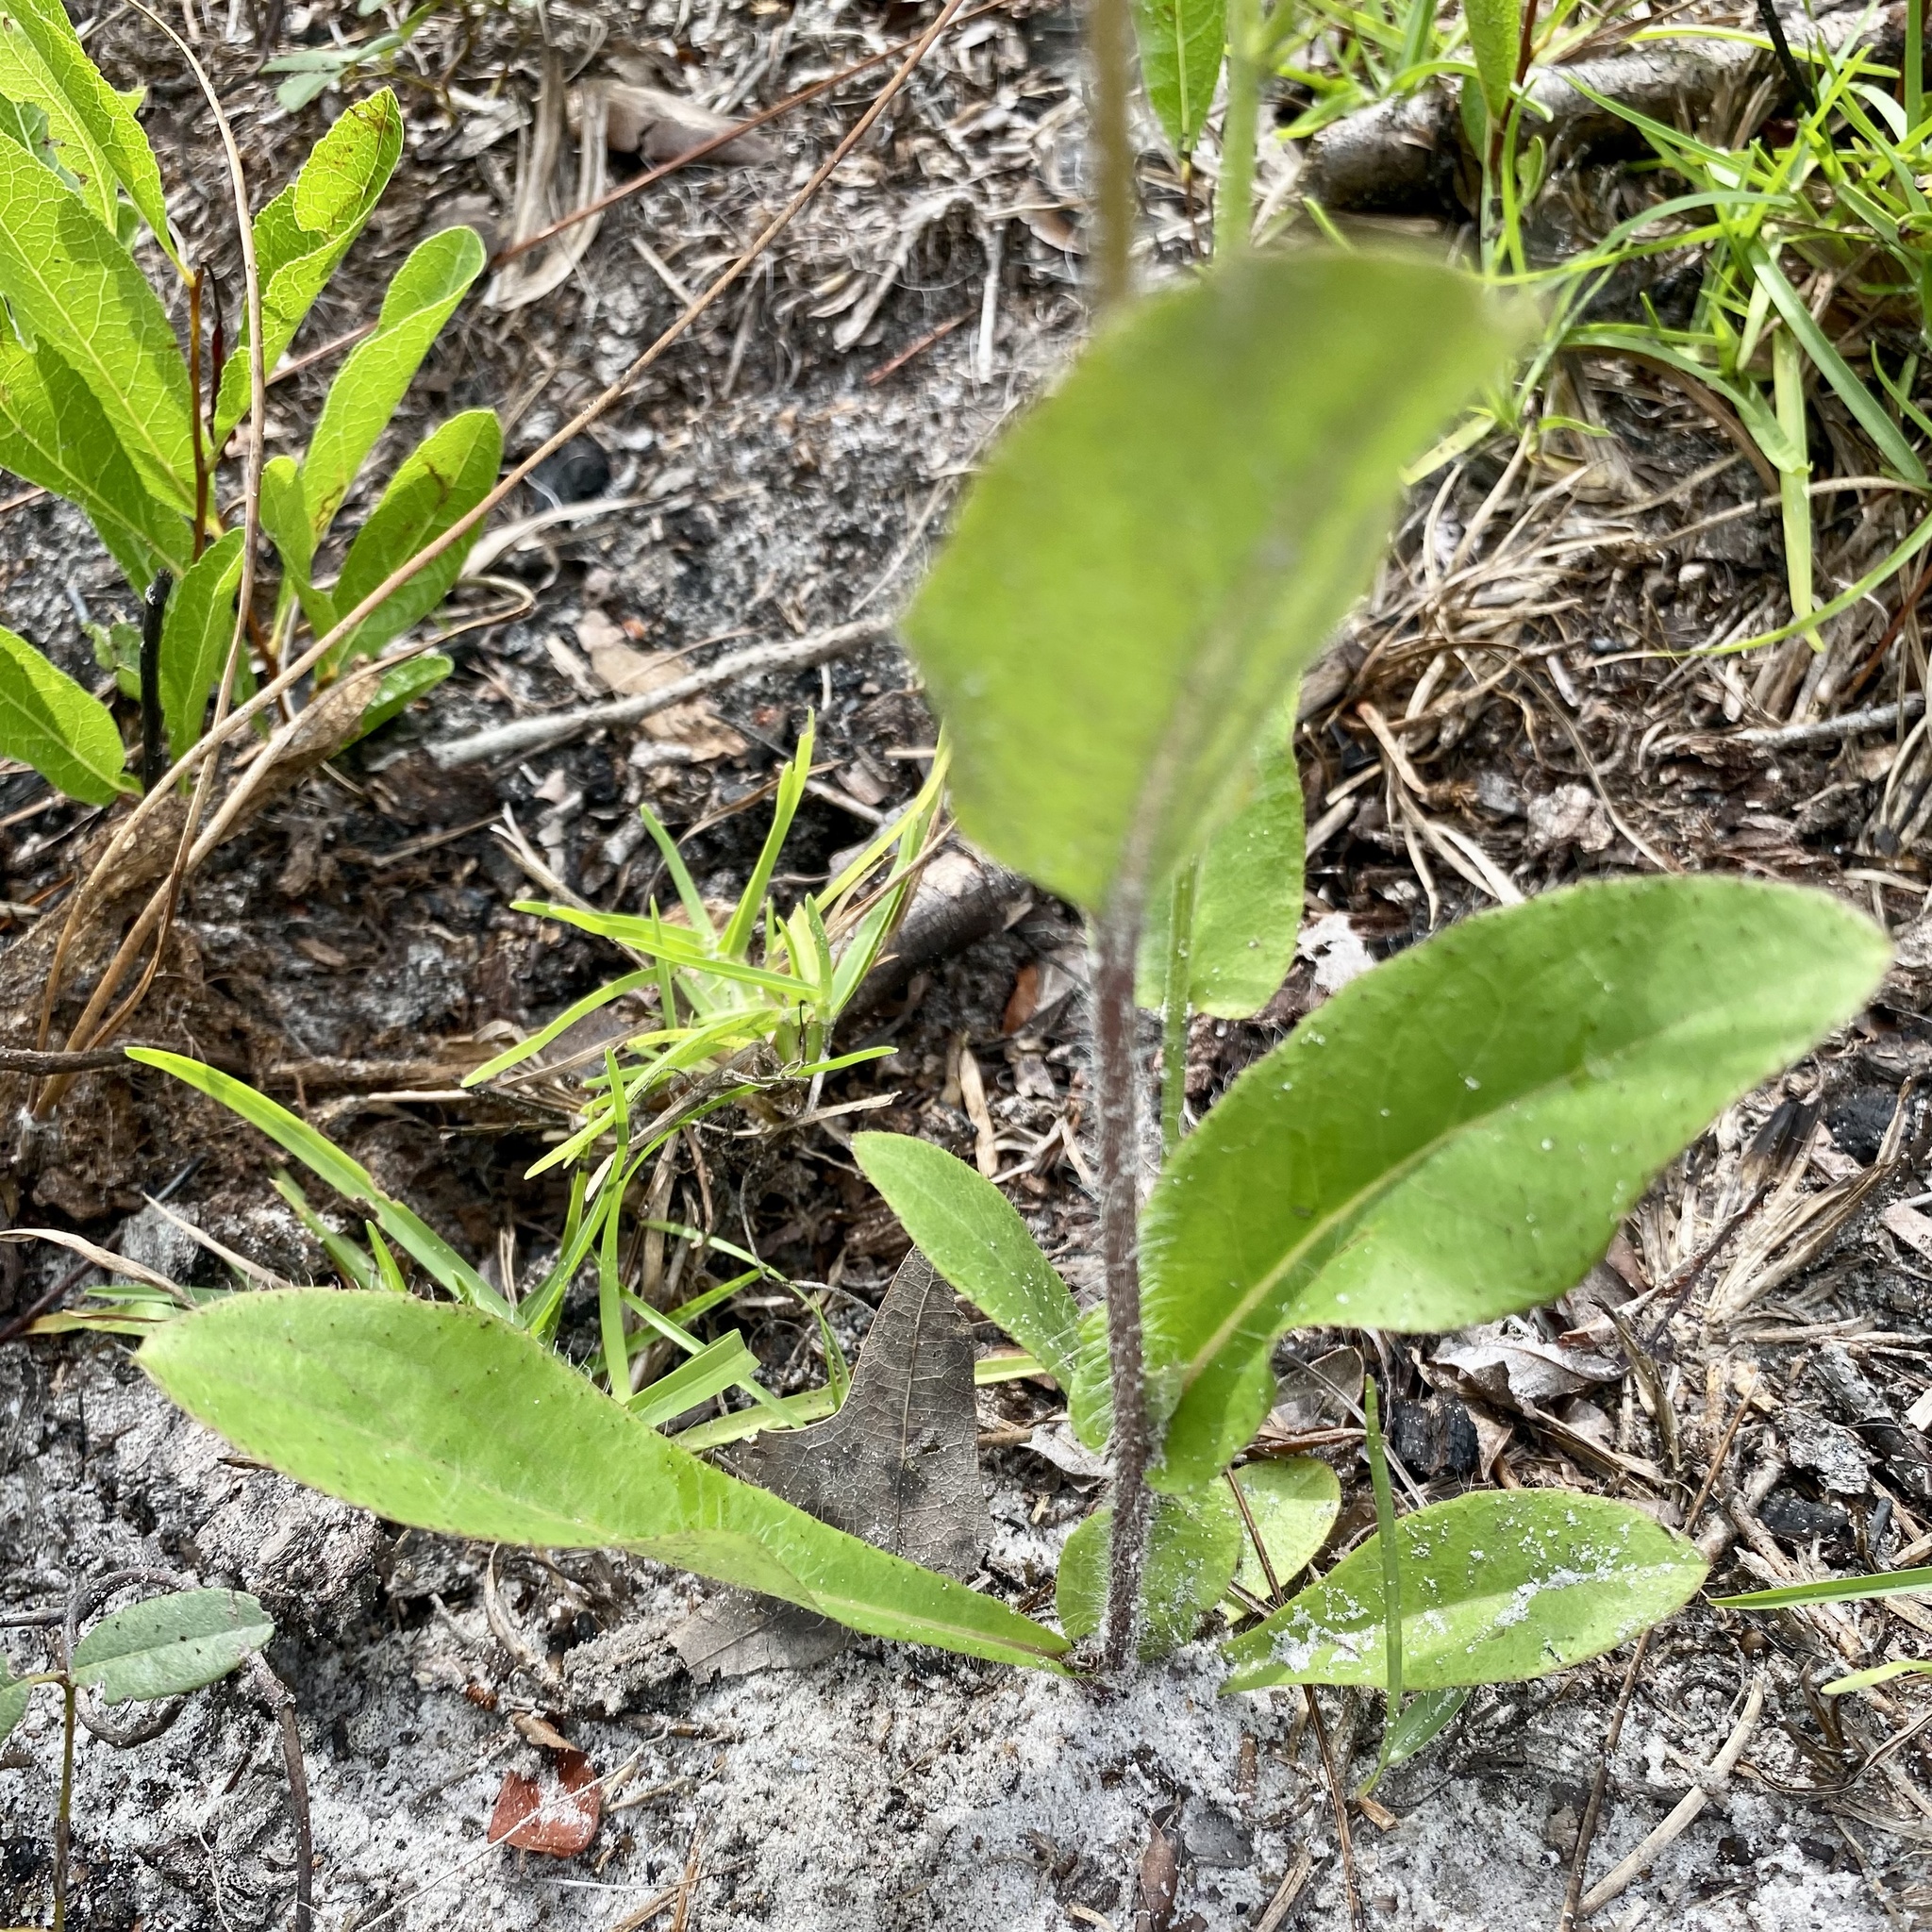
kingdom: Plantae
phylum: Tracheophyta
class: Magnoliopsida
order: Asterales
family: Asteraceae
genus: Hieracium
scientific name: Hieracium megacephalum
